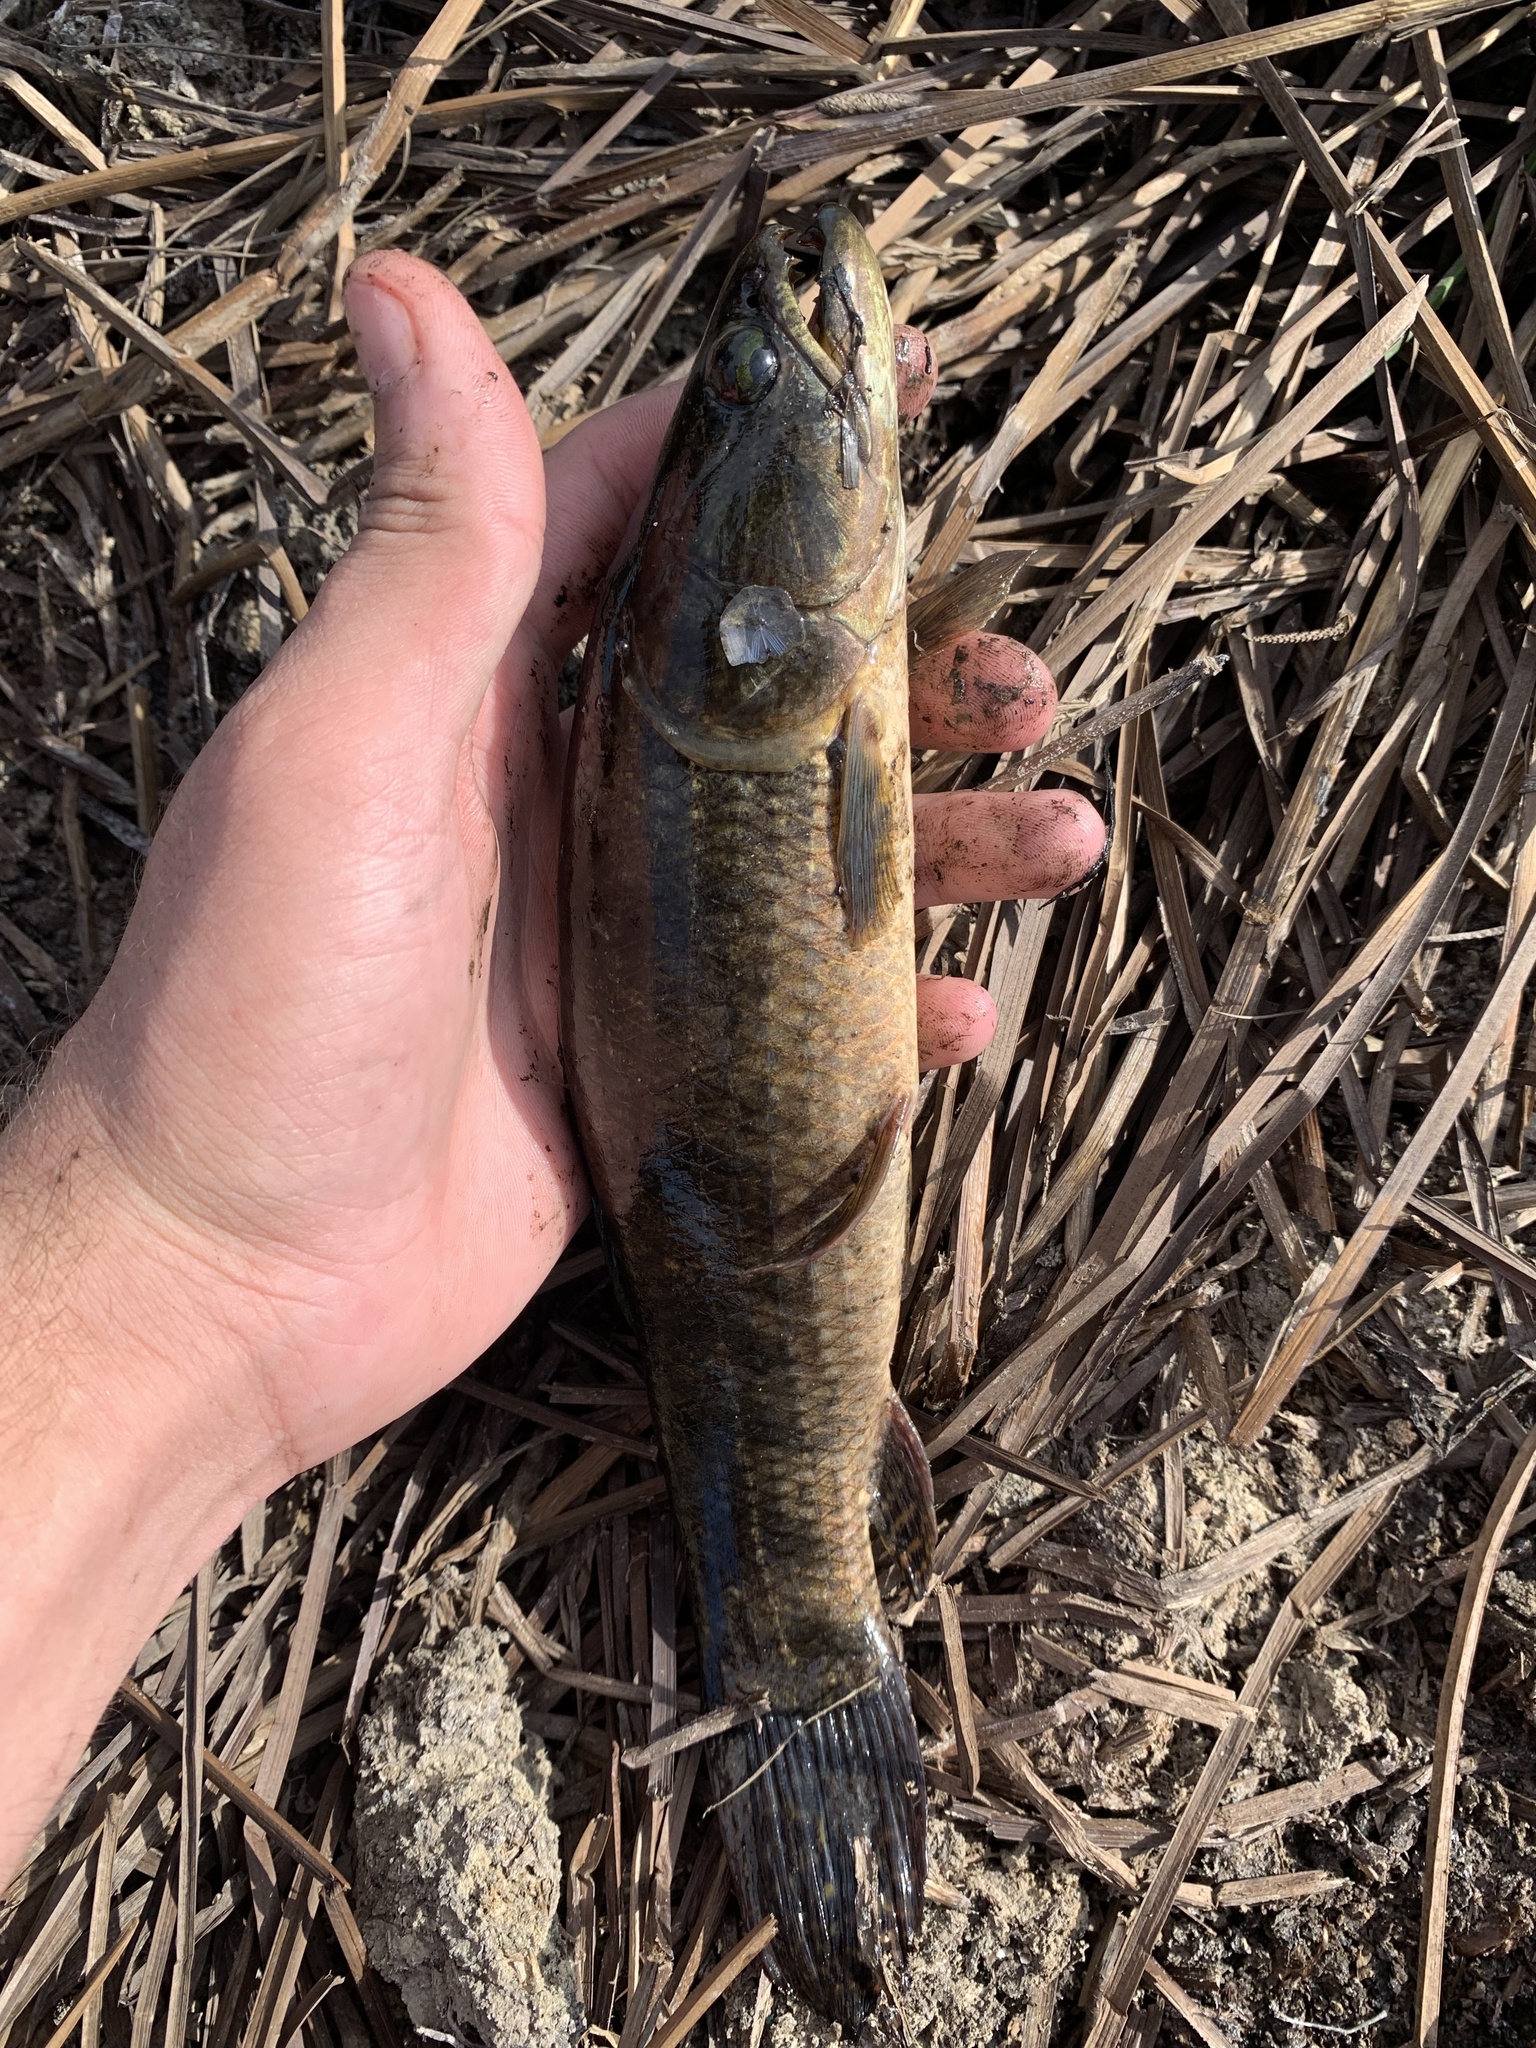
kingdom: Animalia
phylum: Chordata
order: Characiformes
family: Erythrinidae
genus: Hoplias
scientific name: Hoplias malabaricus
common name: Trahira
